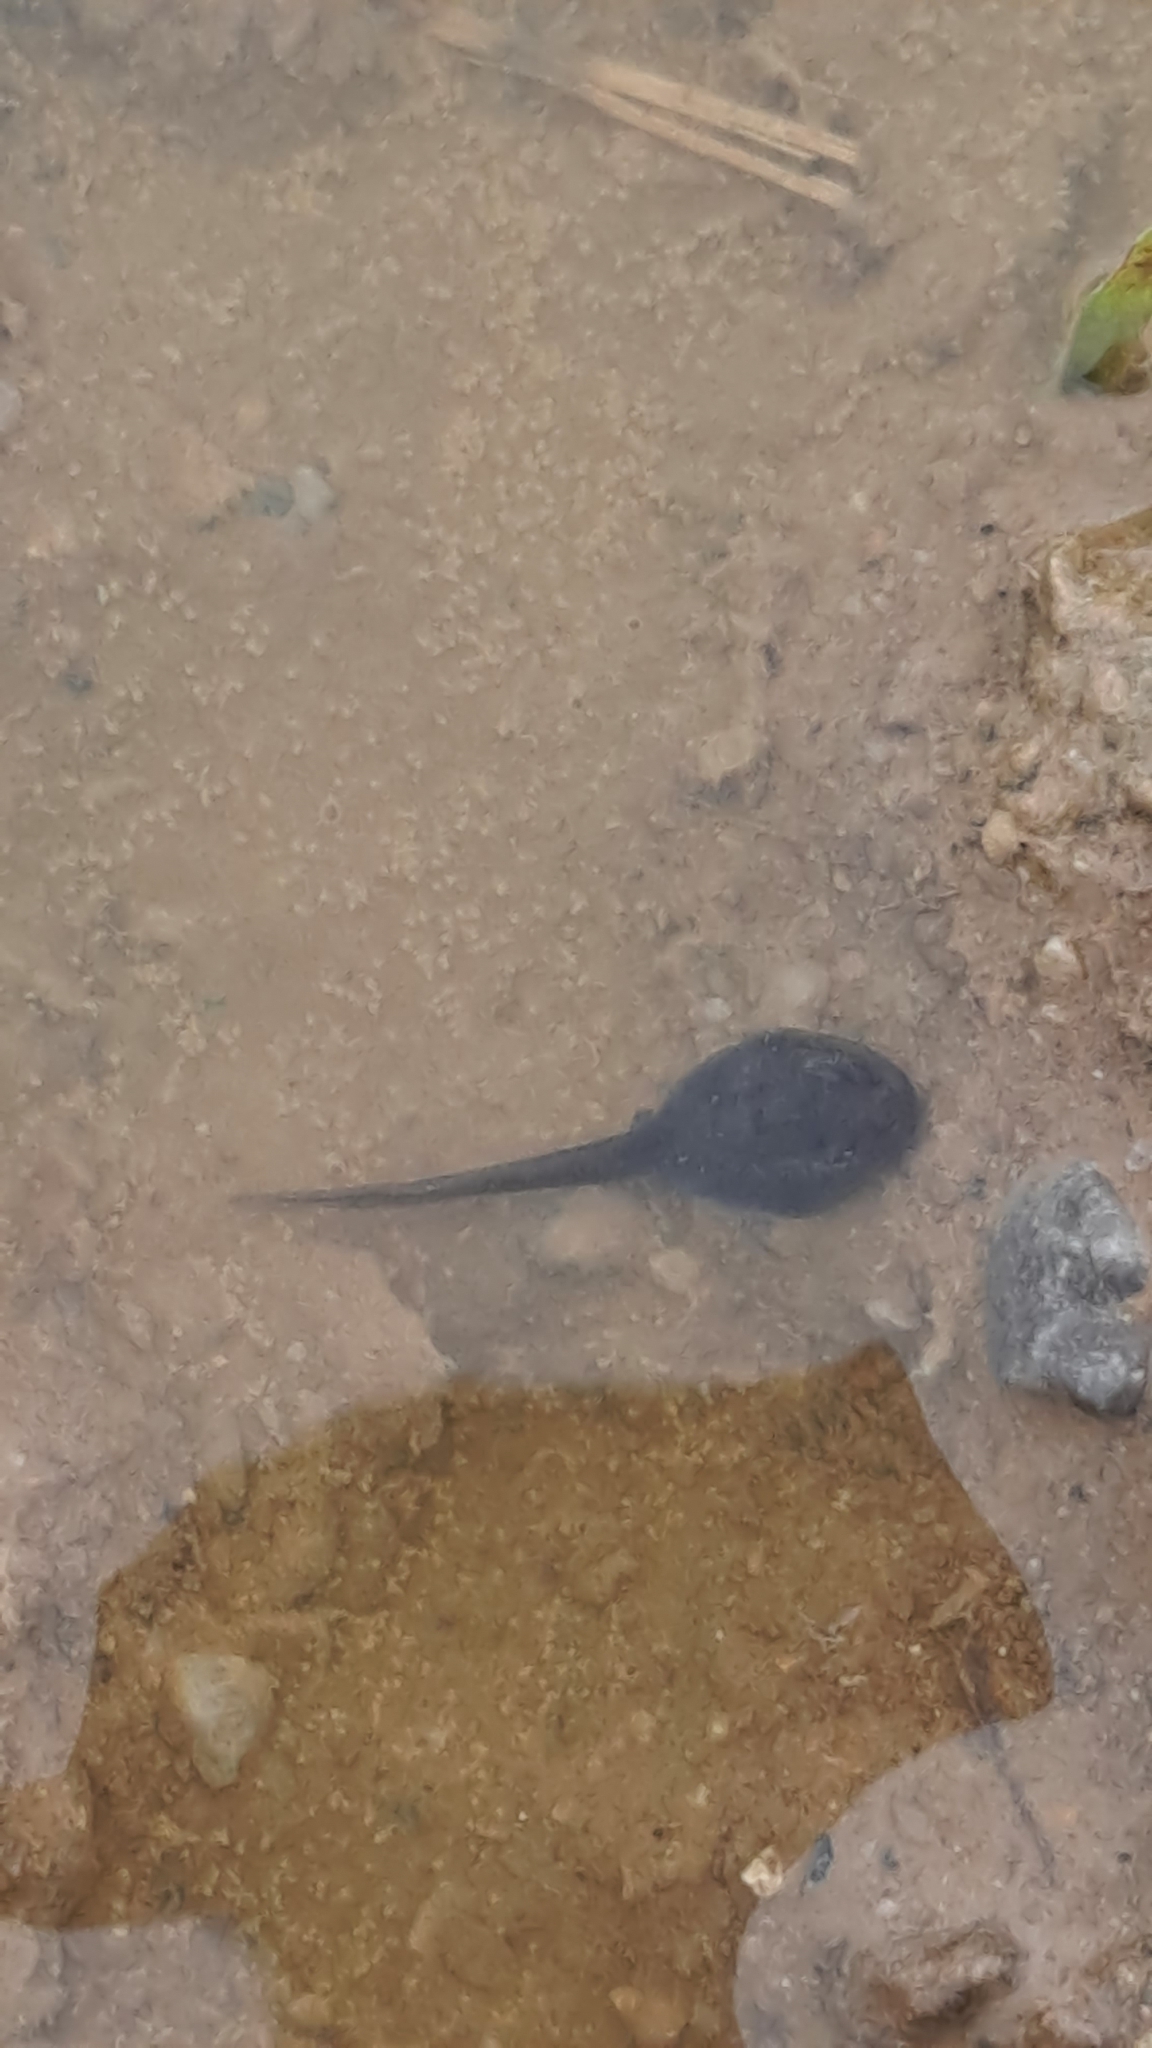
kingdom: Animalia
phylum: Chordata
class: Amphibia
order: Anura
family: Bufonidae
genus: Epidalea
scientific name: Epidalea calamita
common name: Natterjack toad
